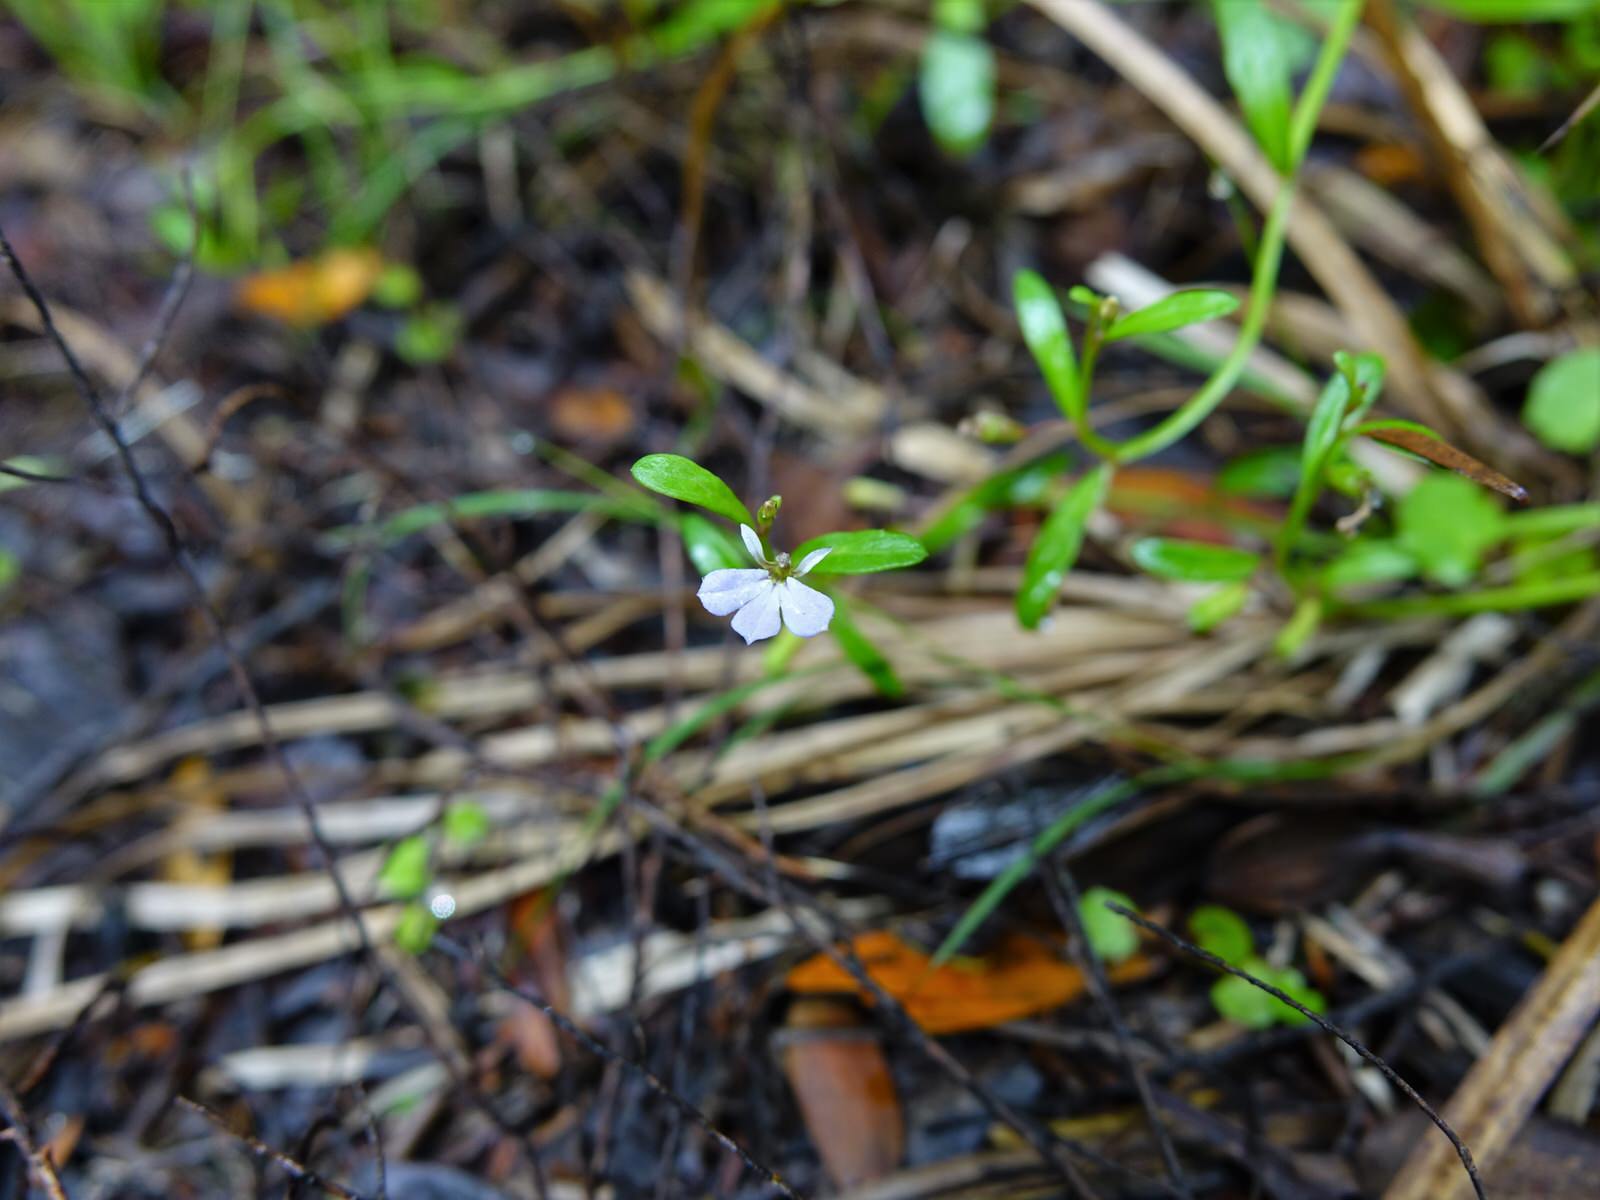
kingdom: Plantae
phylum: Tracheophyta
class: Magnoliopsida
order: Asterales
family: Campanulaceae
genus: Lobelia
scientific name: Lobelia anceps
